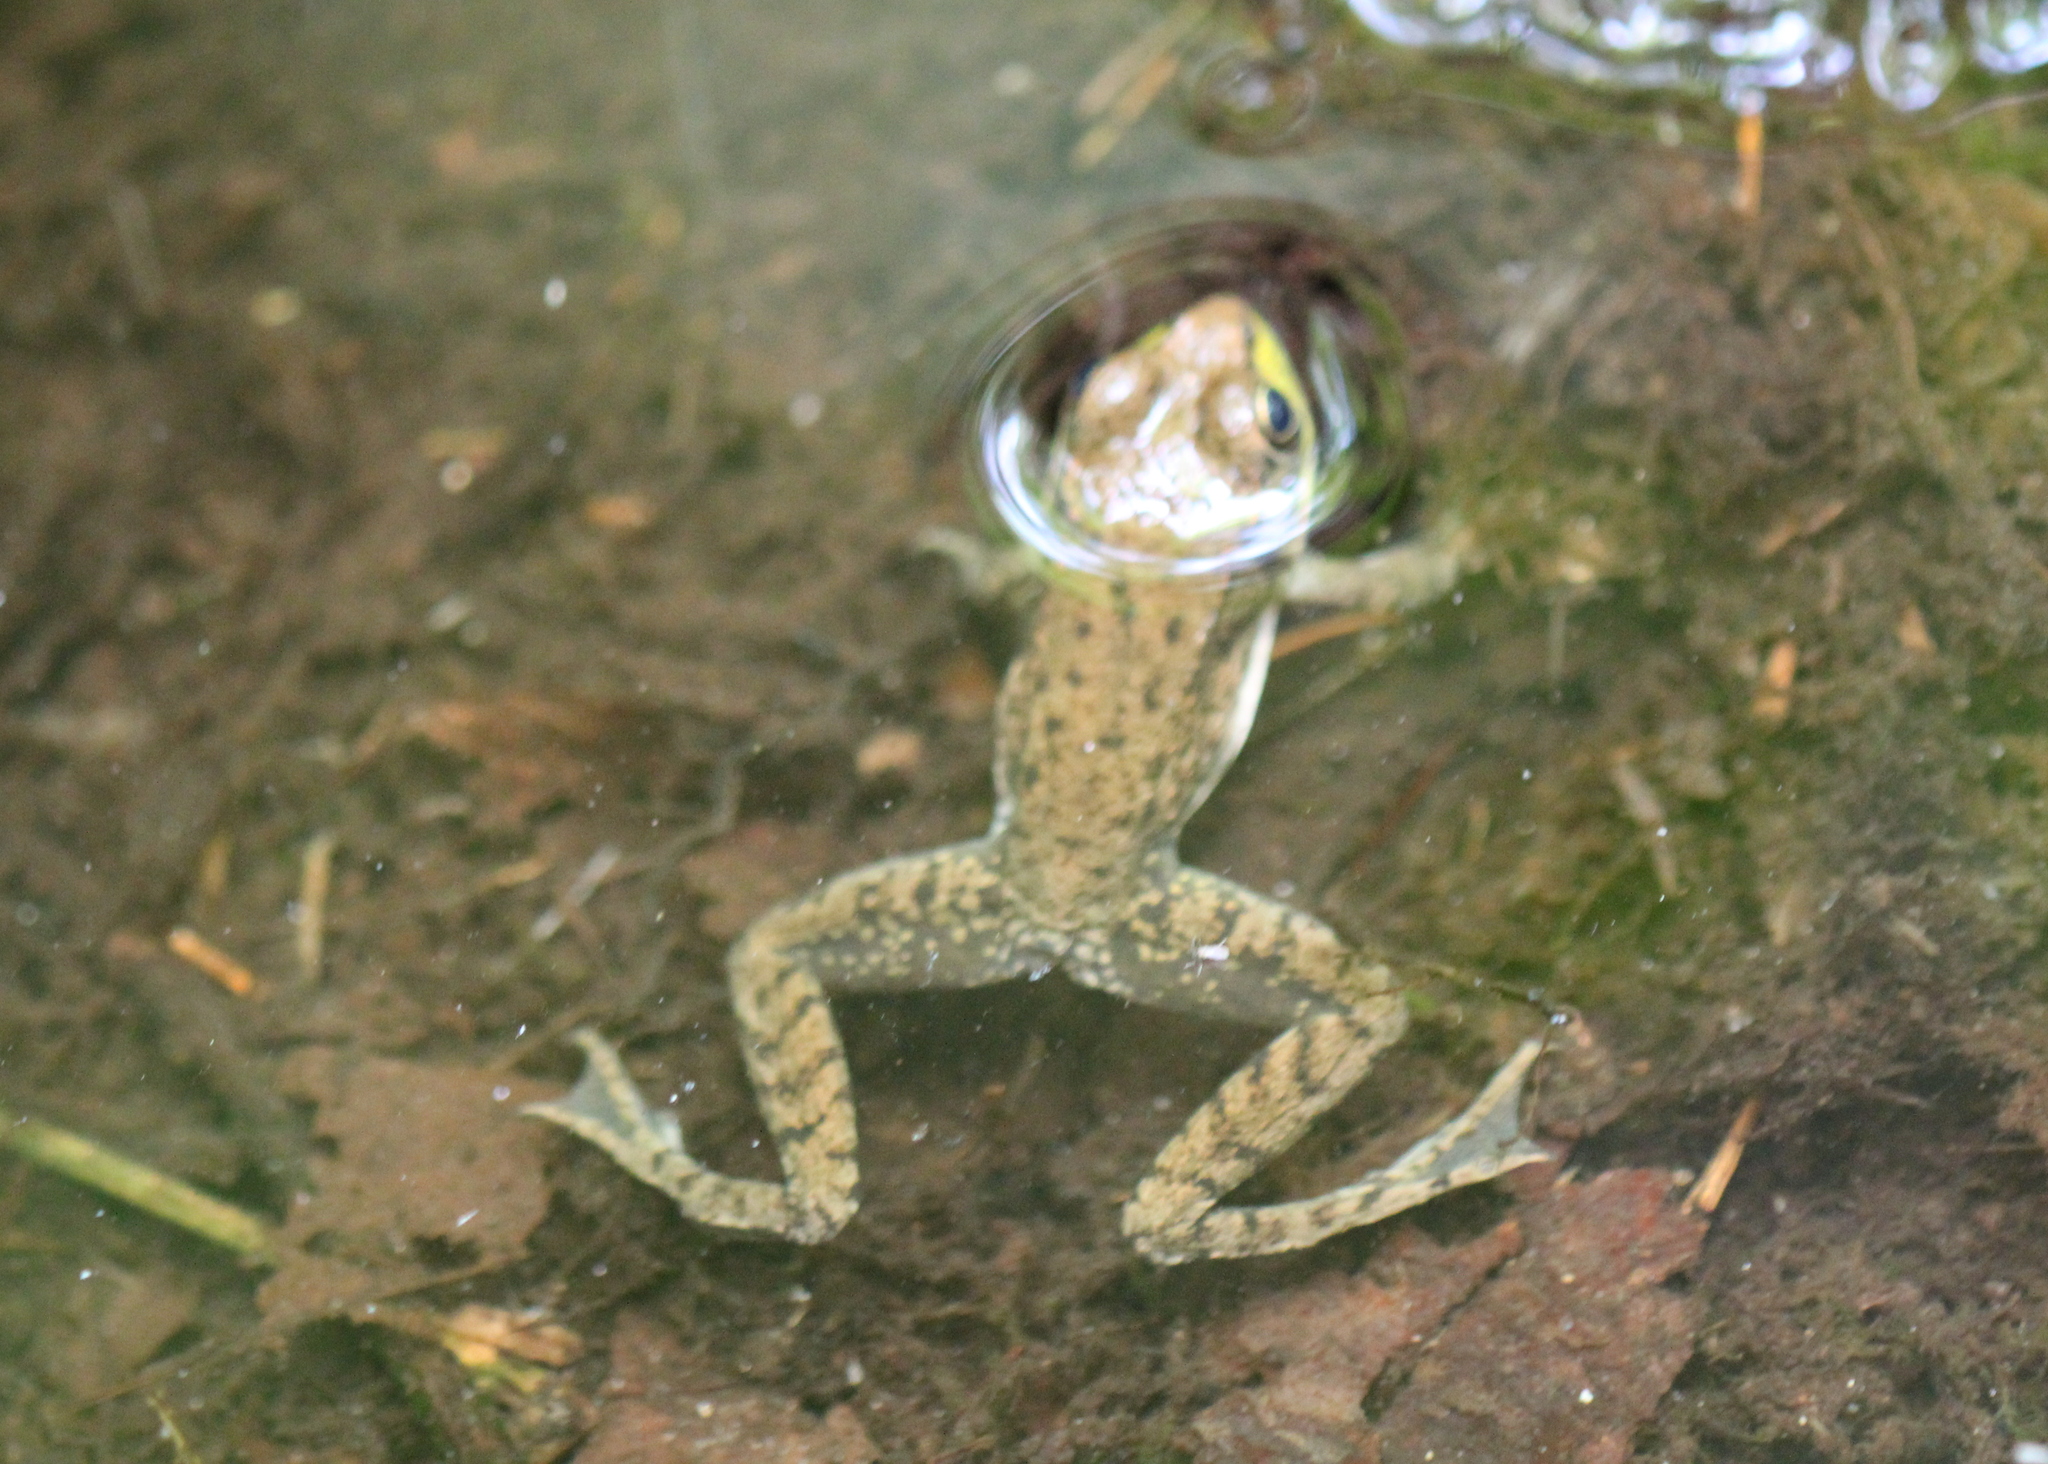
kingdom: Animalia
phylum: Chordata
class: Amphibia
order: Anura
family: Ranidae
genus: Lithobates
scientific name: Lithobates clamitans
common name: Green frog
